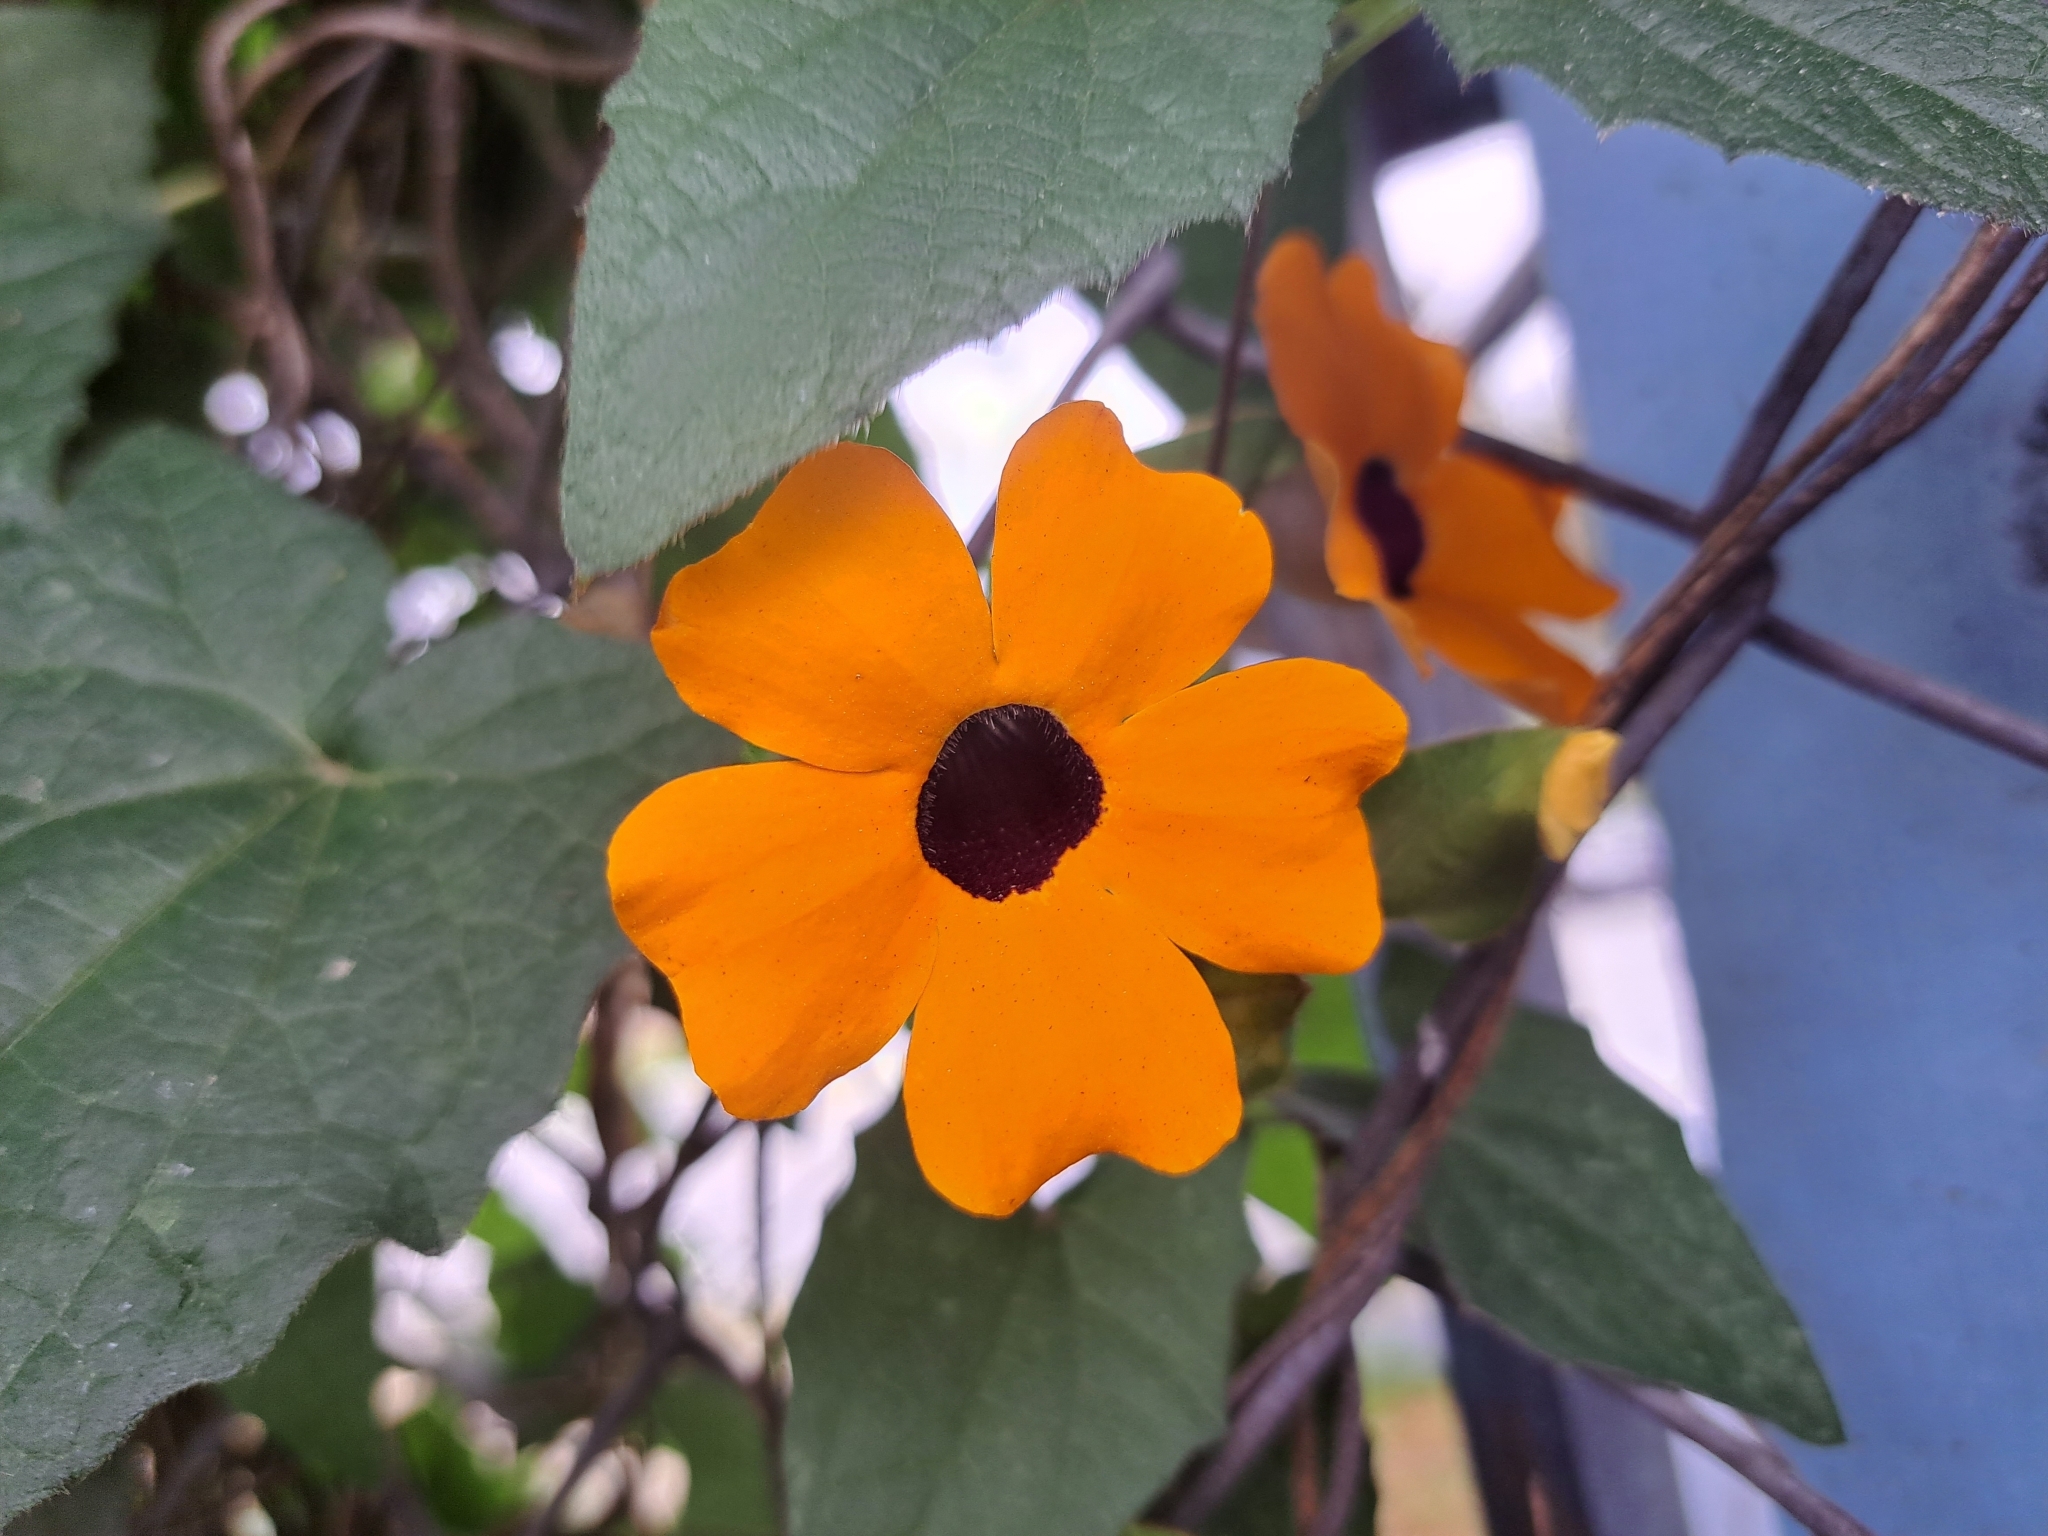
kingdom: Plantae
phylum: Tracheophyta
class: Magnoliopsida
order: Lamiales
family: Acanthaceae
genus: Thunbergia
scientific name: Thunbergia alata
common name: Blackeyed susan vine
